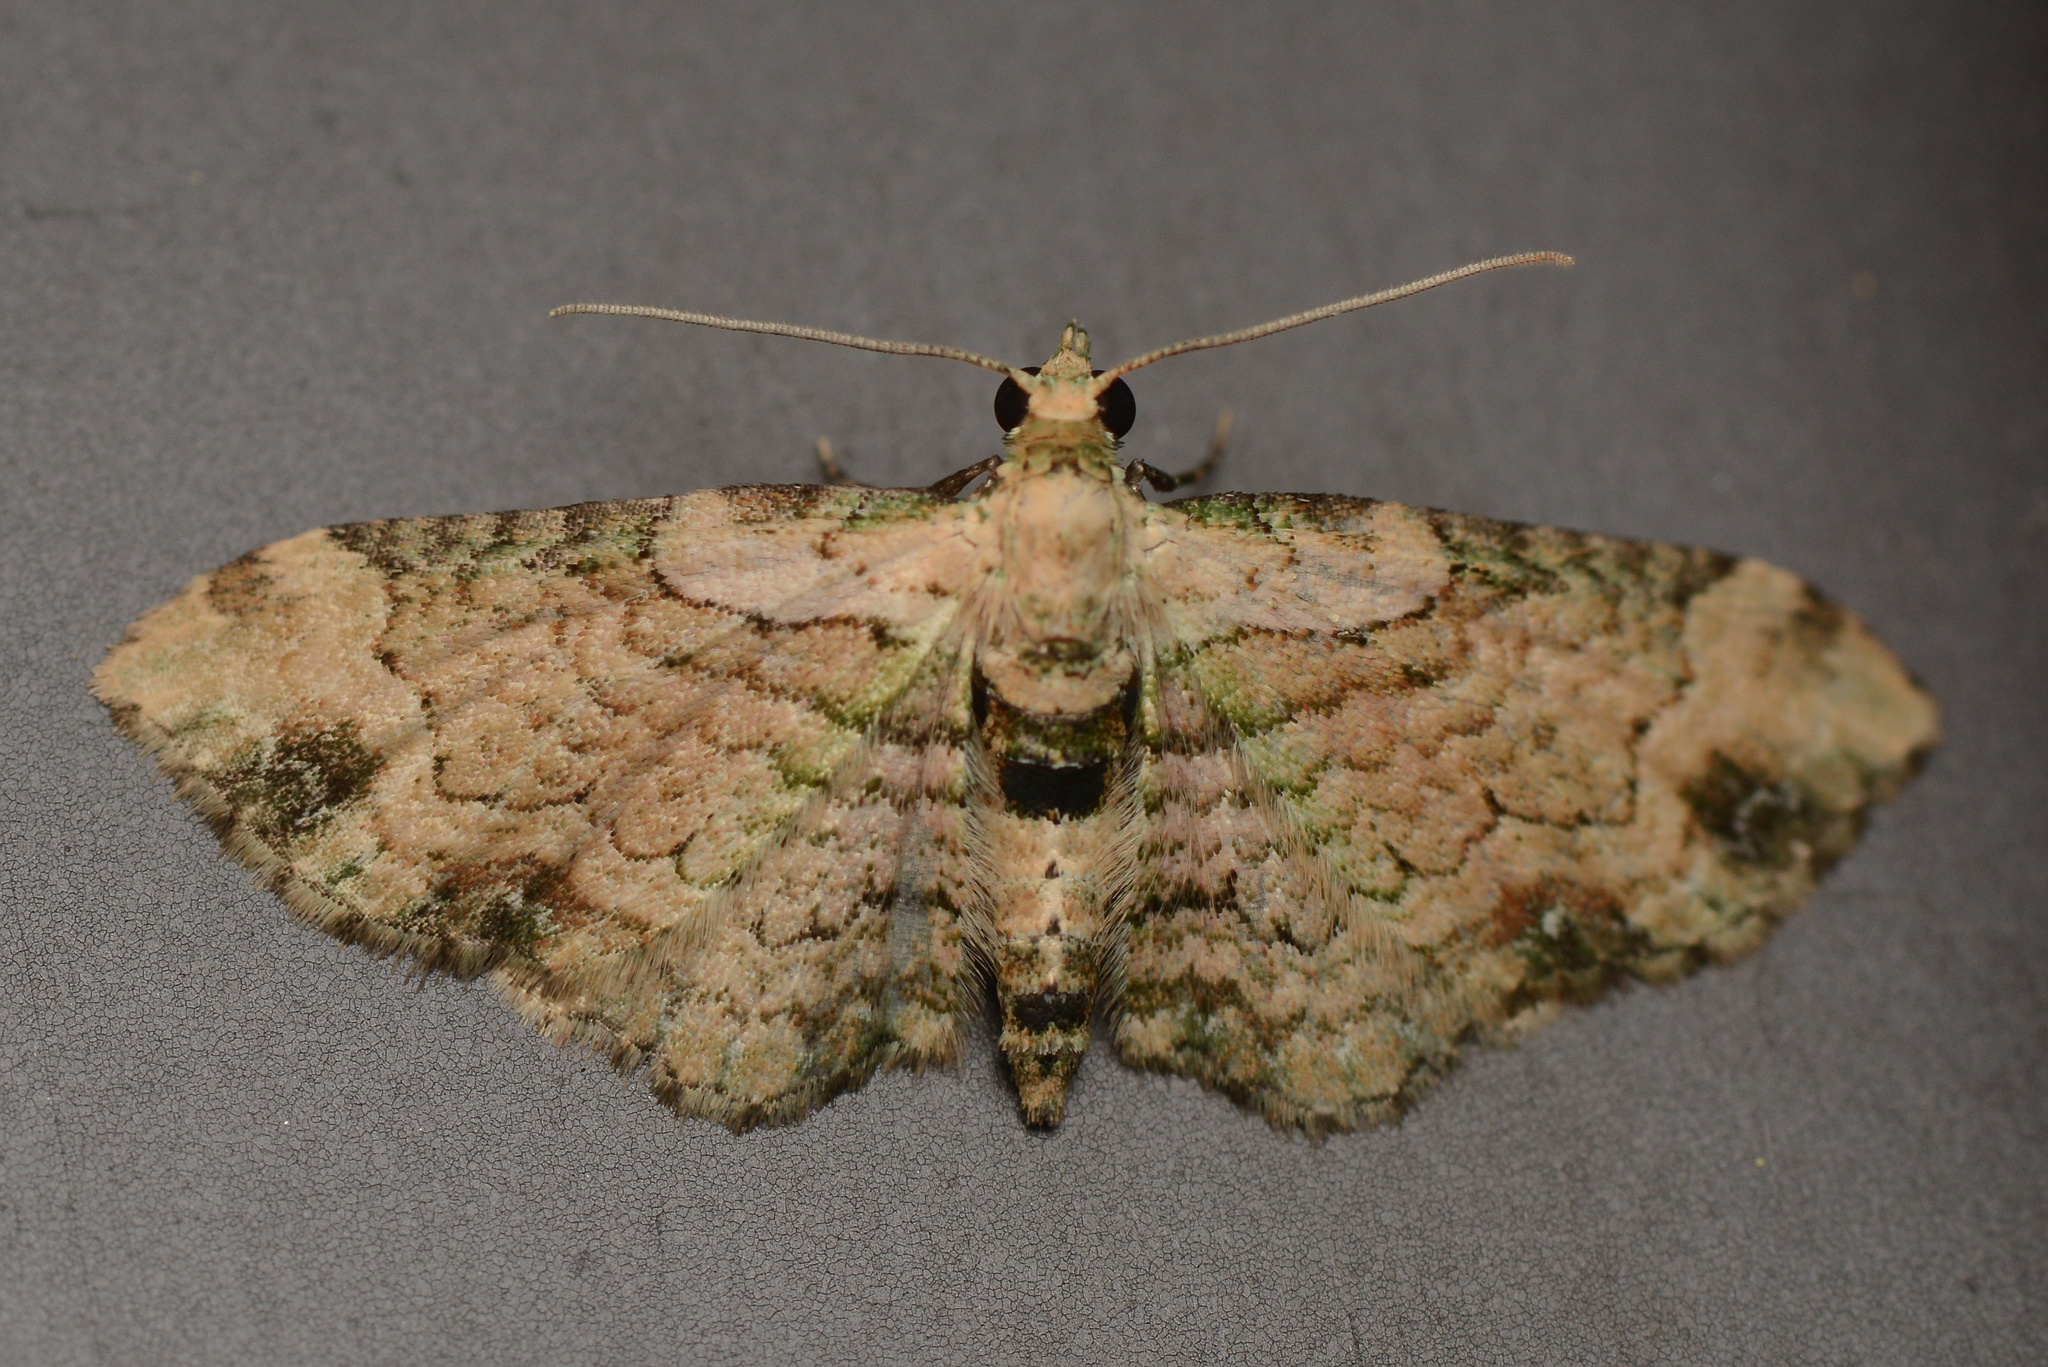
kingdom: Animalia
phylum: Arthropoda
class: Insecta
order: Lepidoptera
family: Geometridae
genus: Chloroclystis
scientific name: Chloroclystis
